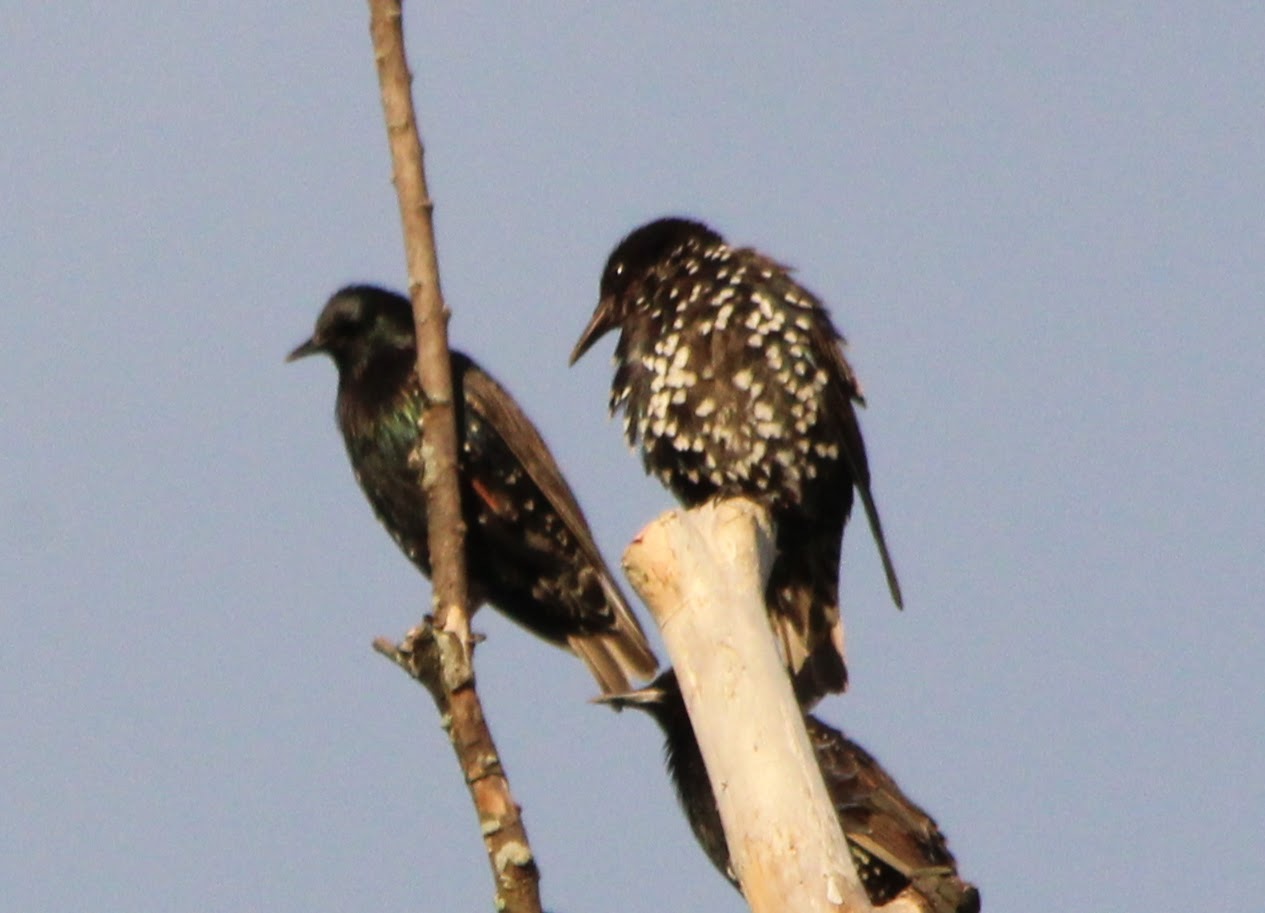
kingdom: Animalia
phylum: Chordata
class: Aves
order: Passeriformes
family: Sturnidae
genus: Sturnus
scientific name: Sturnus vulgaris
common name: Common starling
